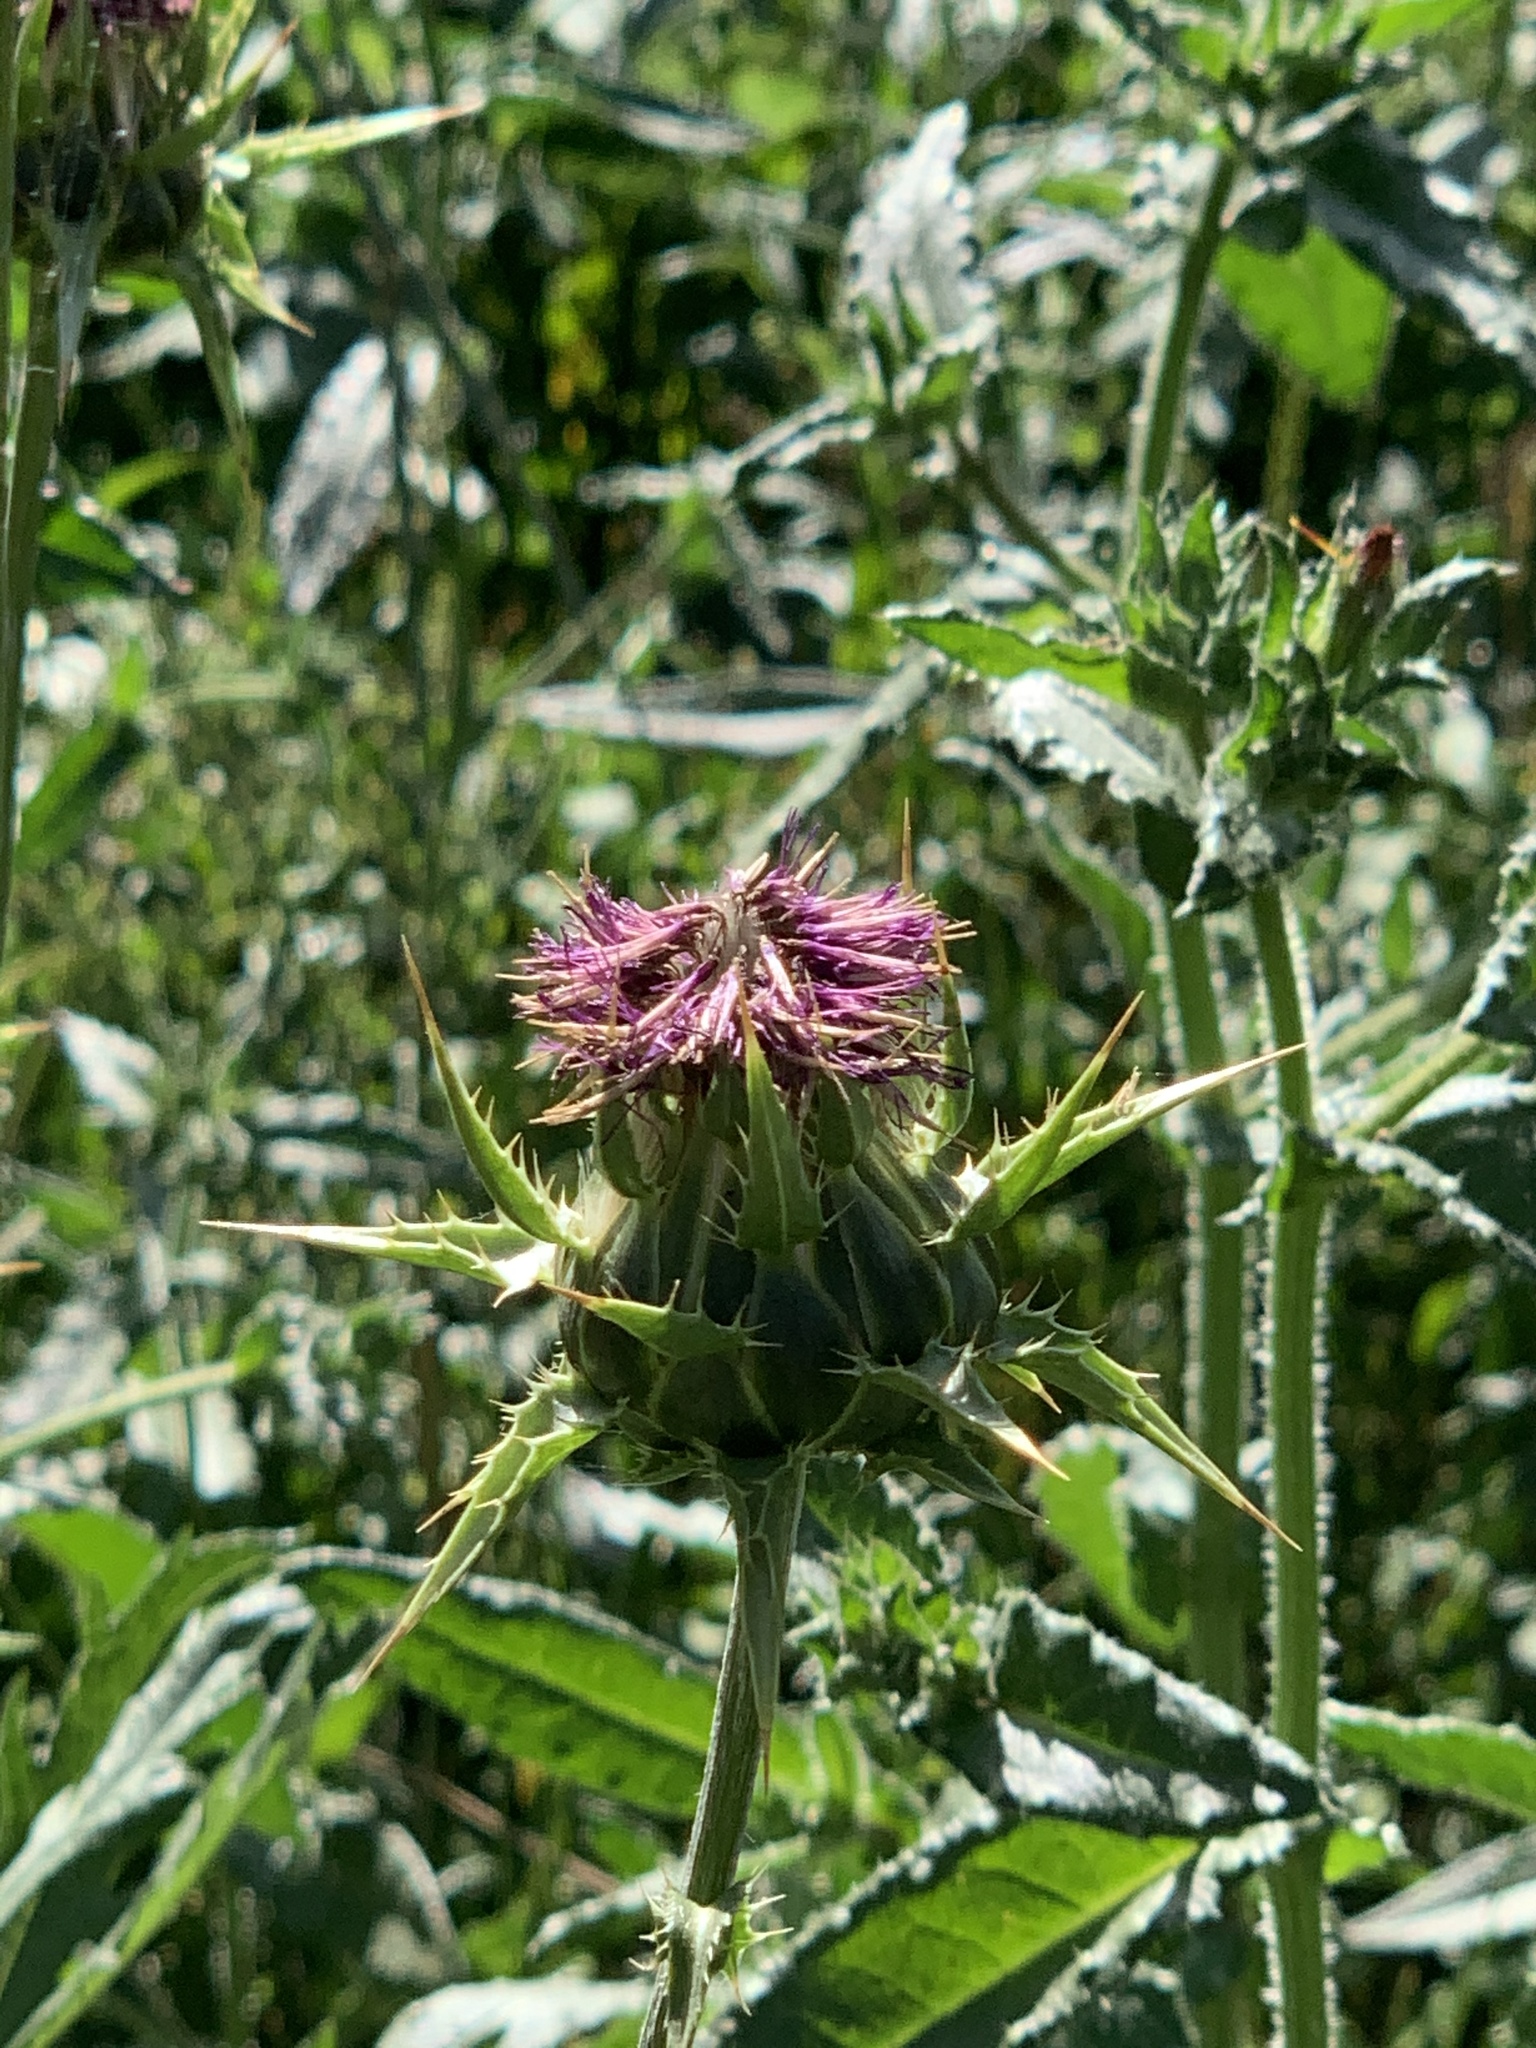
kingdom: Plantae
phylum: Tracheophyta
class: Magnoliopsida
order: Asterales
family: Asteraceae
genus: Silybum
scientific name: Silybum marianum
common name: Milk thistle
